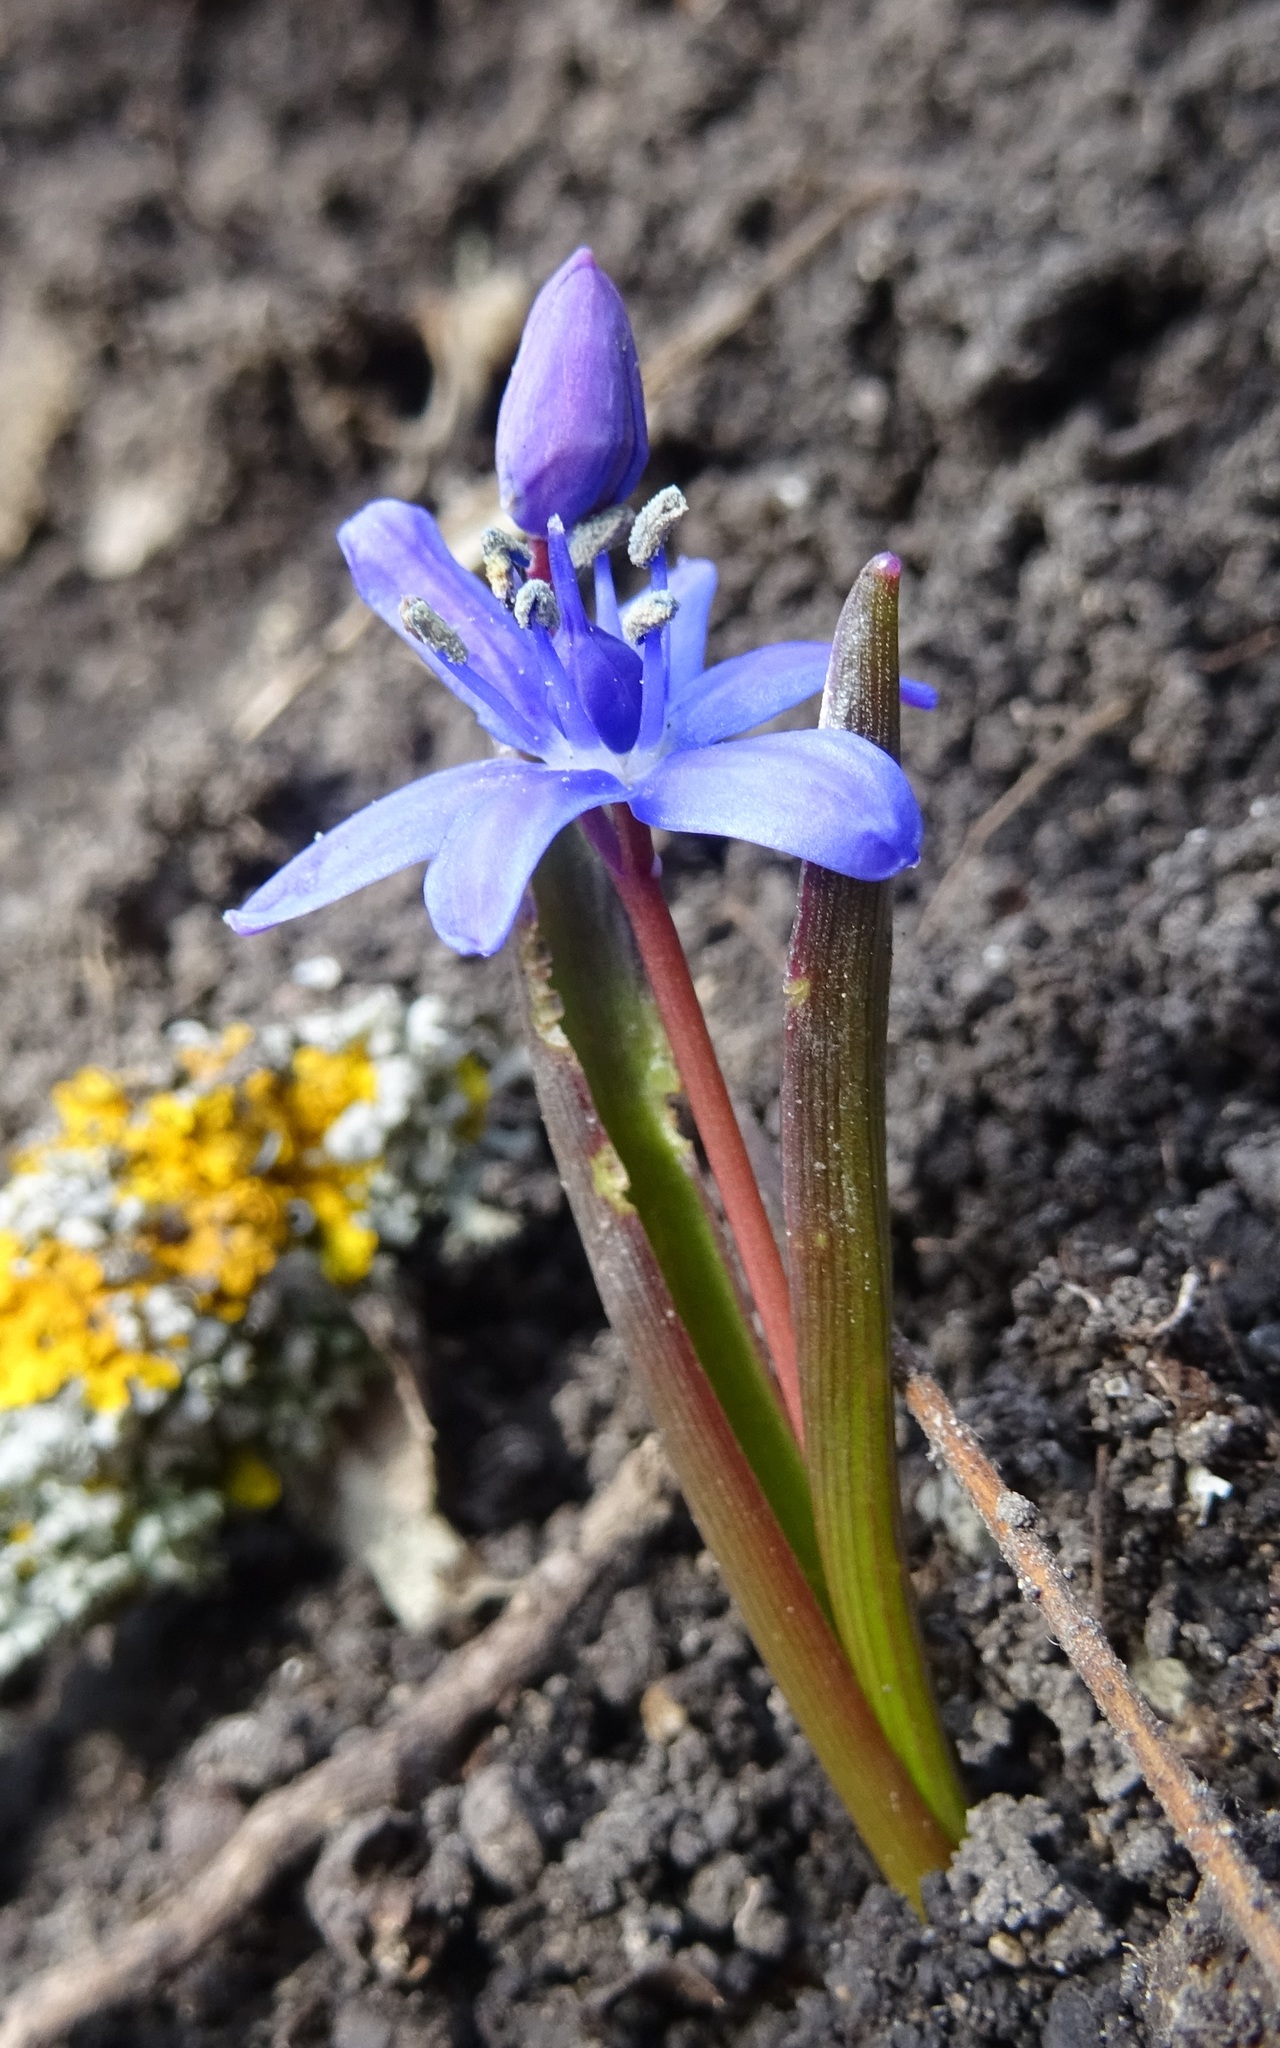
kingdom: Plantae
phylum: Tracheophyta
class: Liliopsida
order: Asparagales
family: Asparagaceae
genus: Scilla
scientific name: Scilla bifolia
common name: Alpine squill
